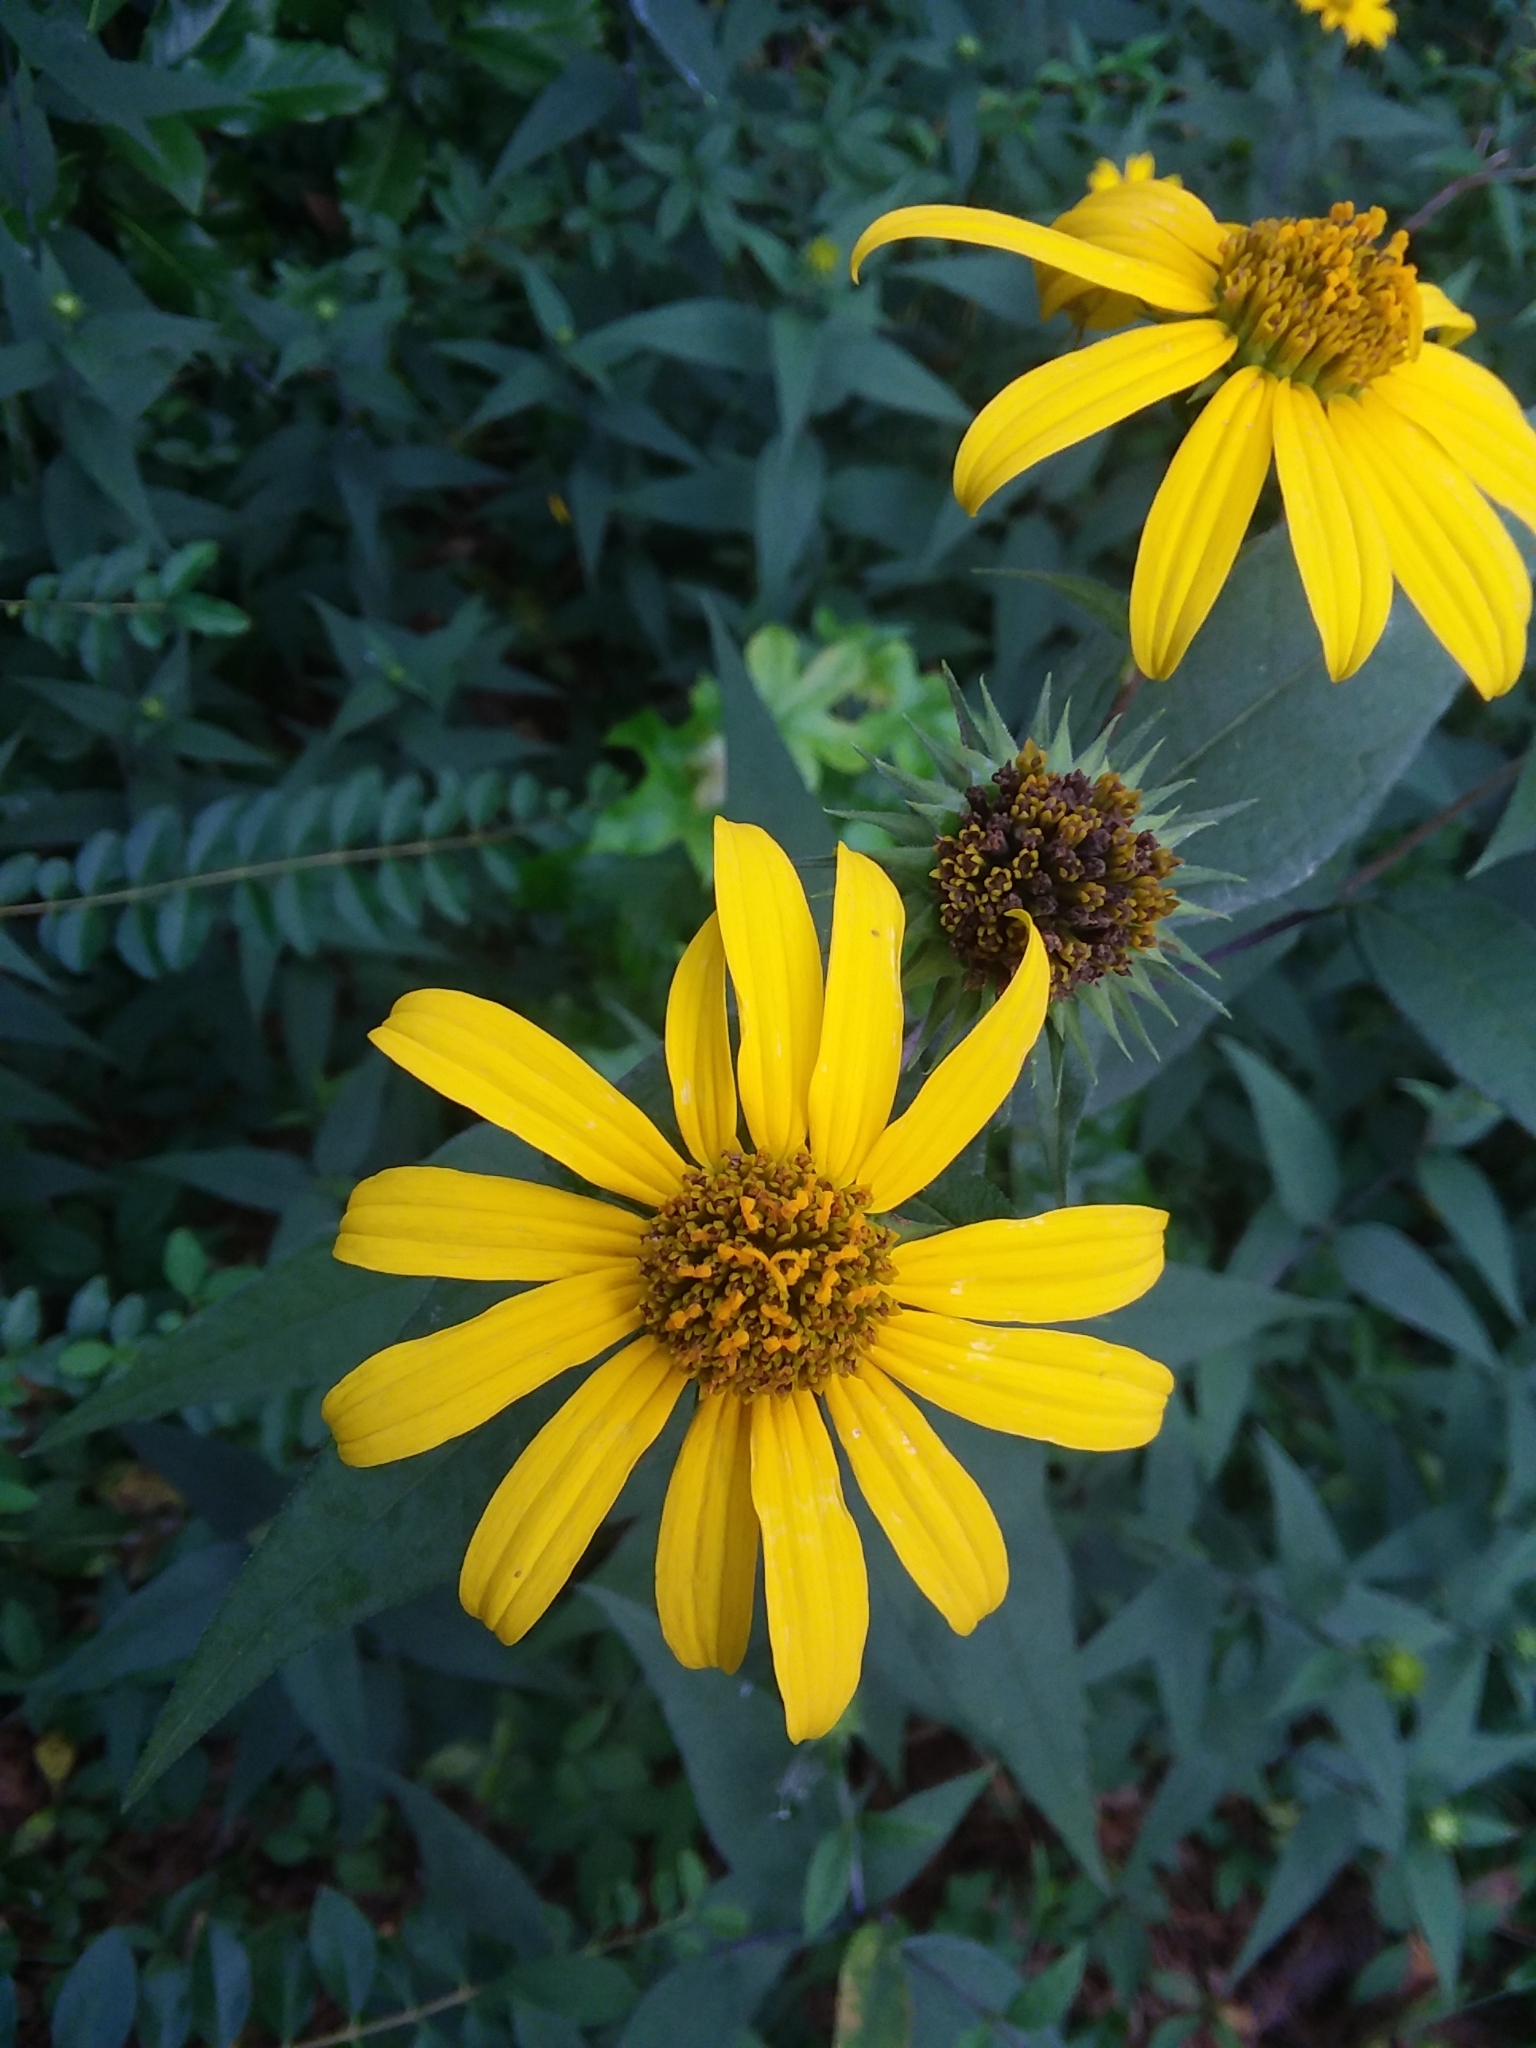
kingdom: Plantae
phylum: Tracheophyta
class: Magnoliopsida
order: Asterales
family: Asteraceae
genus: Helianthus
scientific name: Helianthus strumosus
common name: Pale-leaved sunflower
